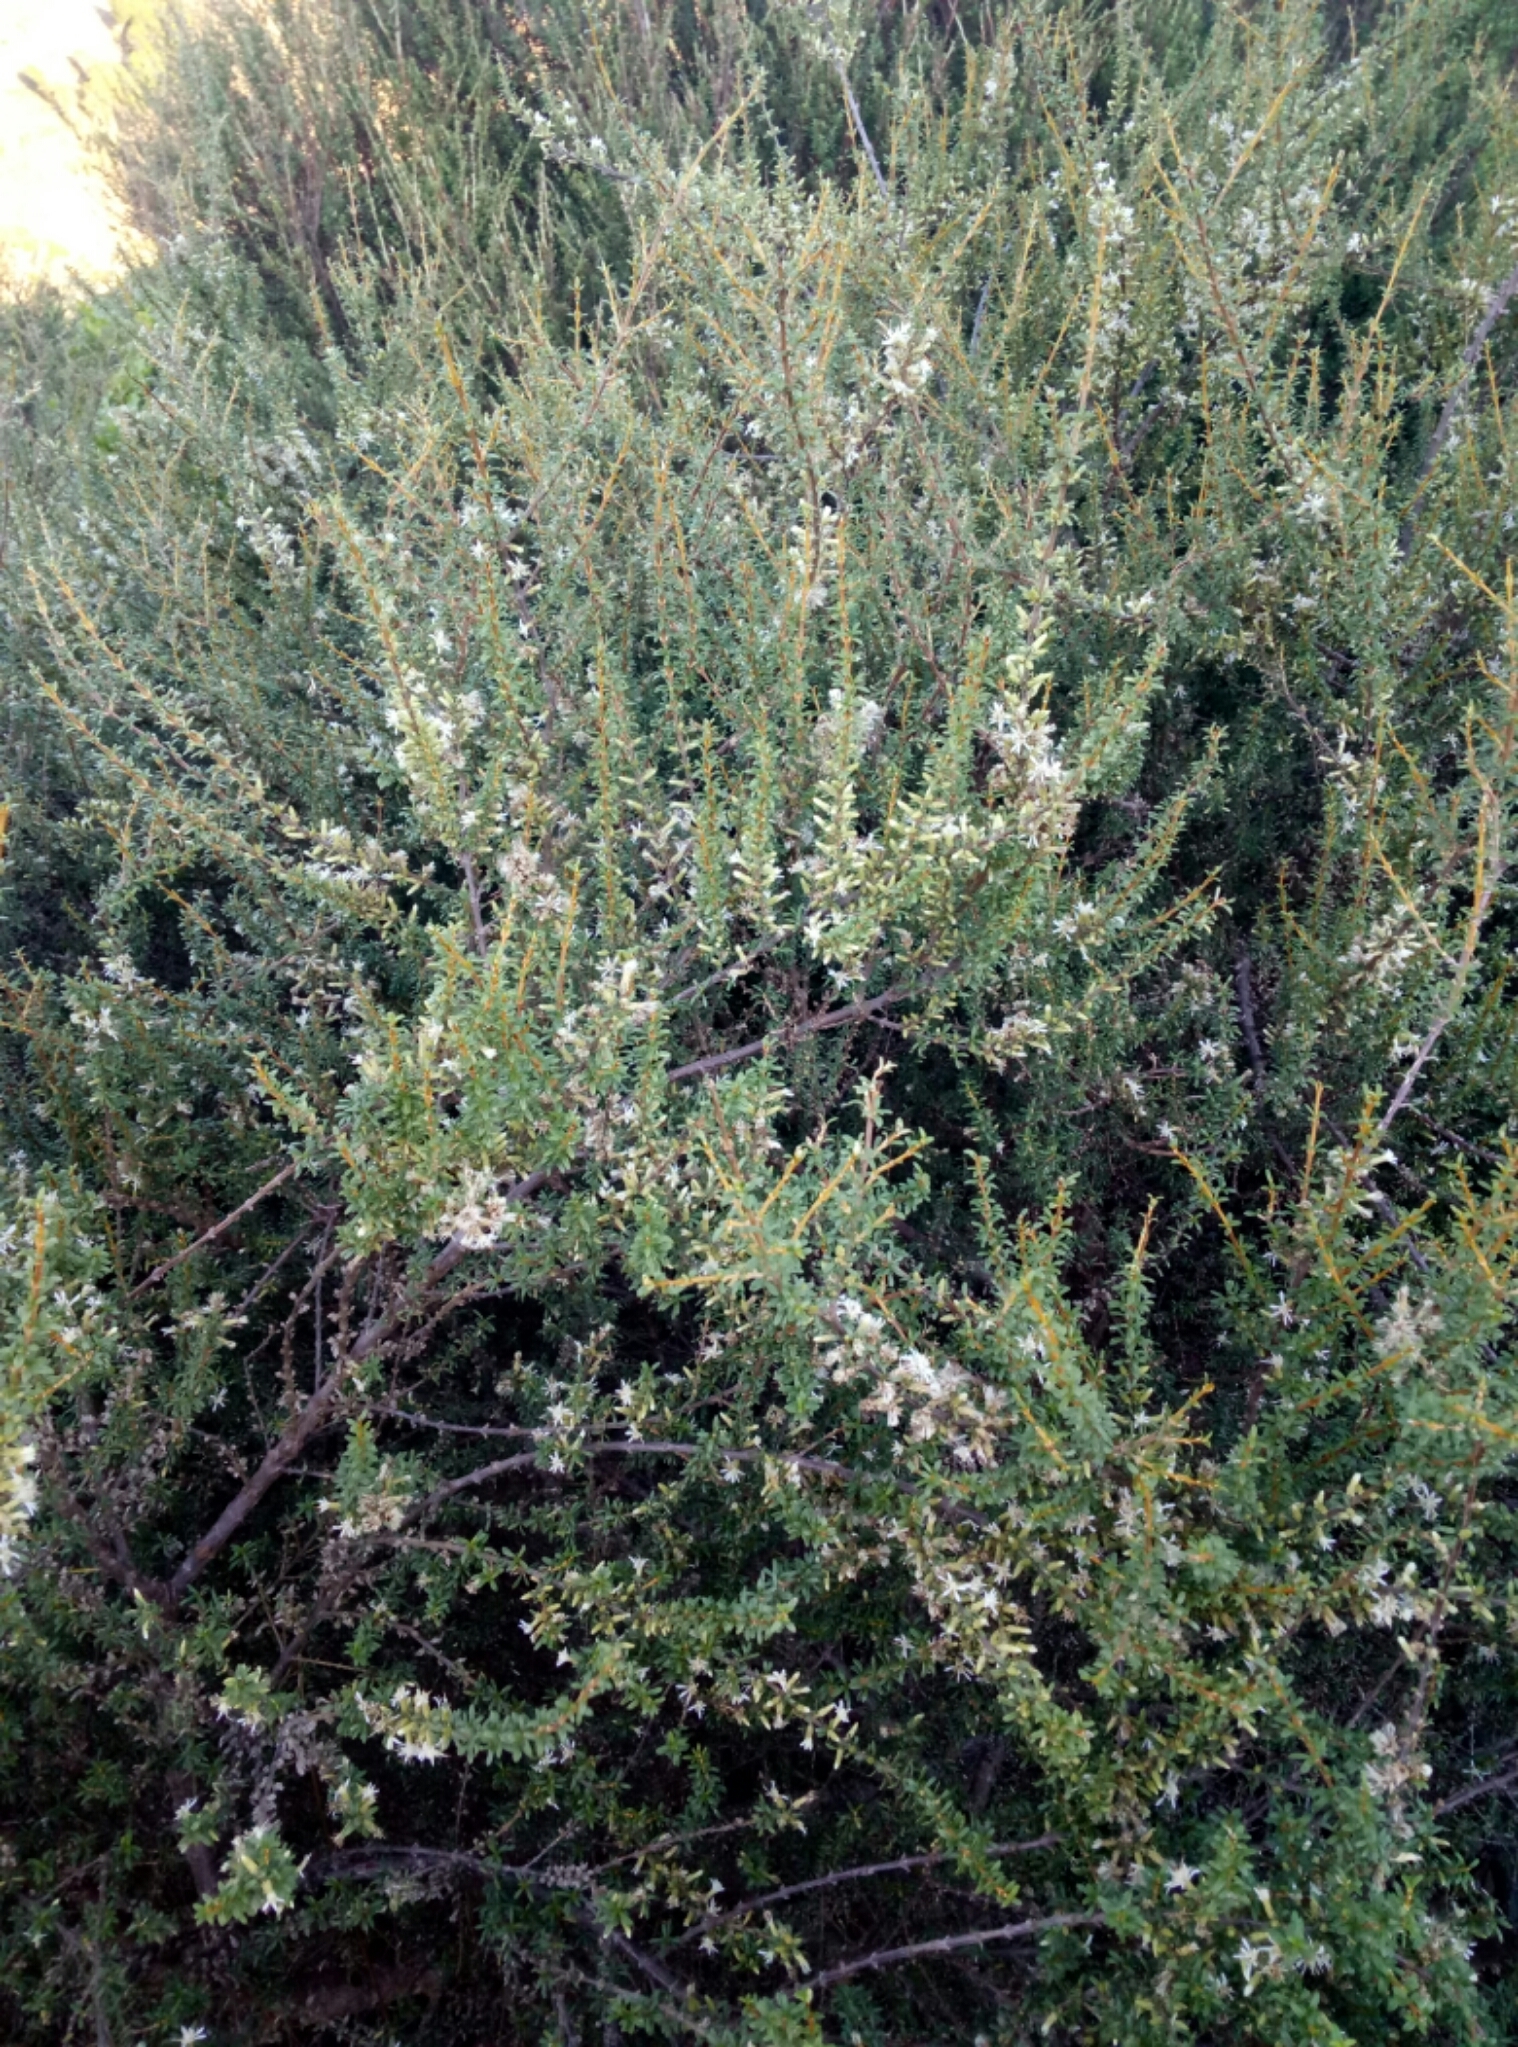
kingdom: Plantae
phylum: Tracheophyta
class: Magnoliopsida
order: Asterales
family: Asteraceae
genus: Olearia
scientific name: Olearia solandri
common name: Coastal daisybush
